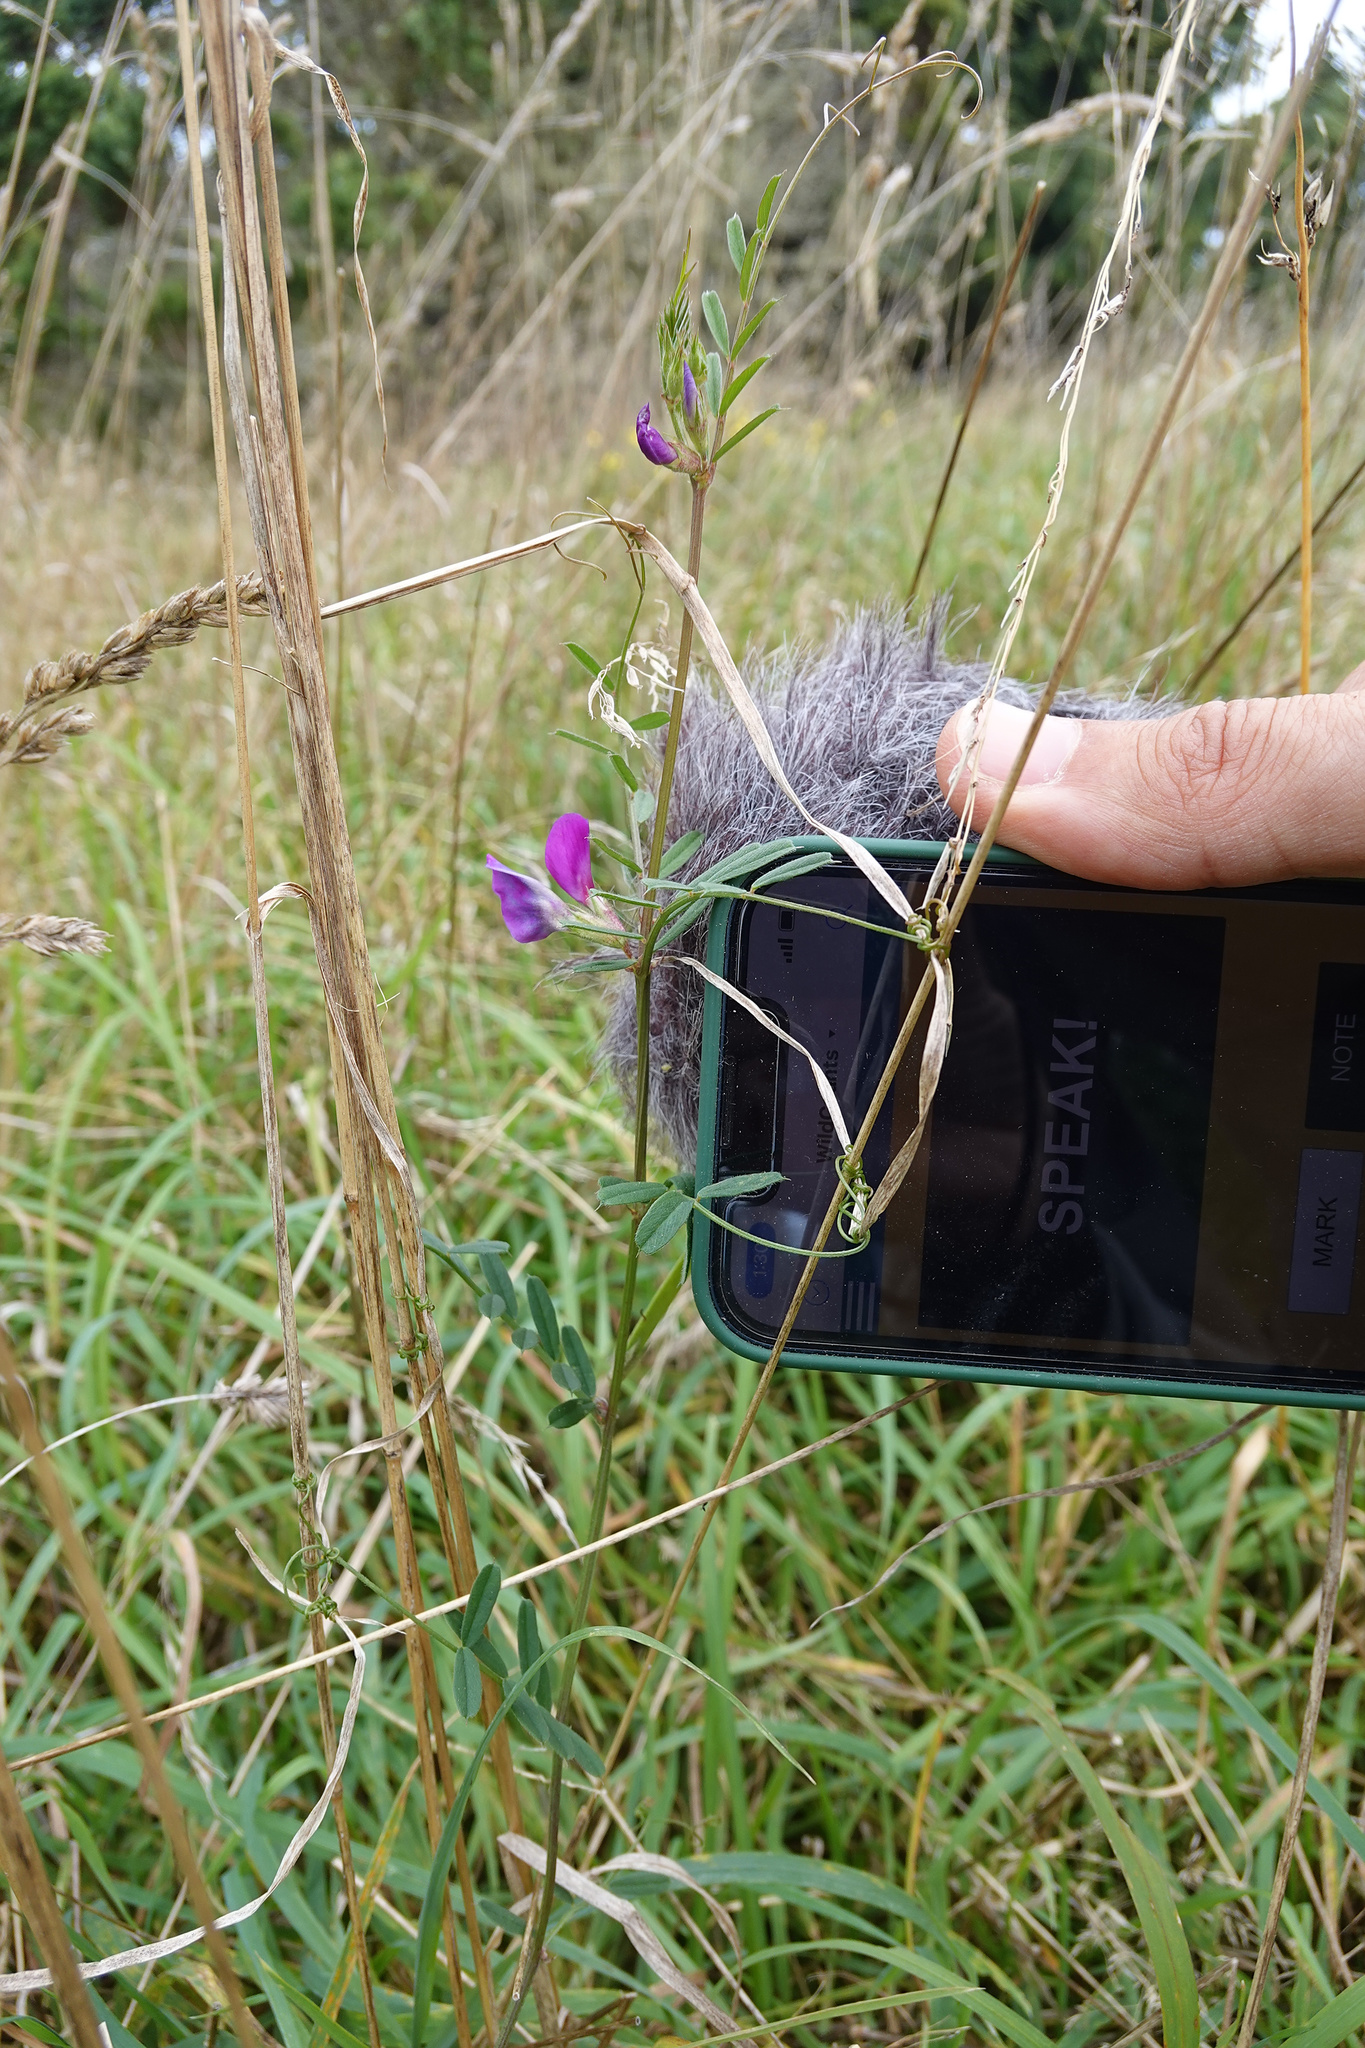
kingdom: Plantae
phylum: Tracheophyta
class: Magnoliopsida
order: Fabales
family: Fabaceae
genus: Vicia
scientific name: Vicia sativa
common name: Garden vetch
